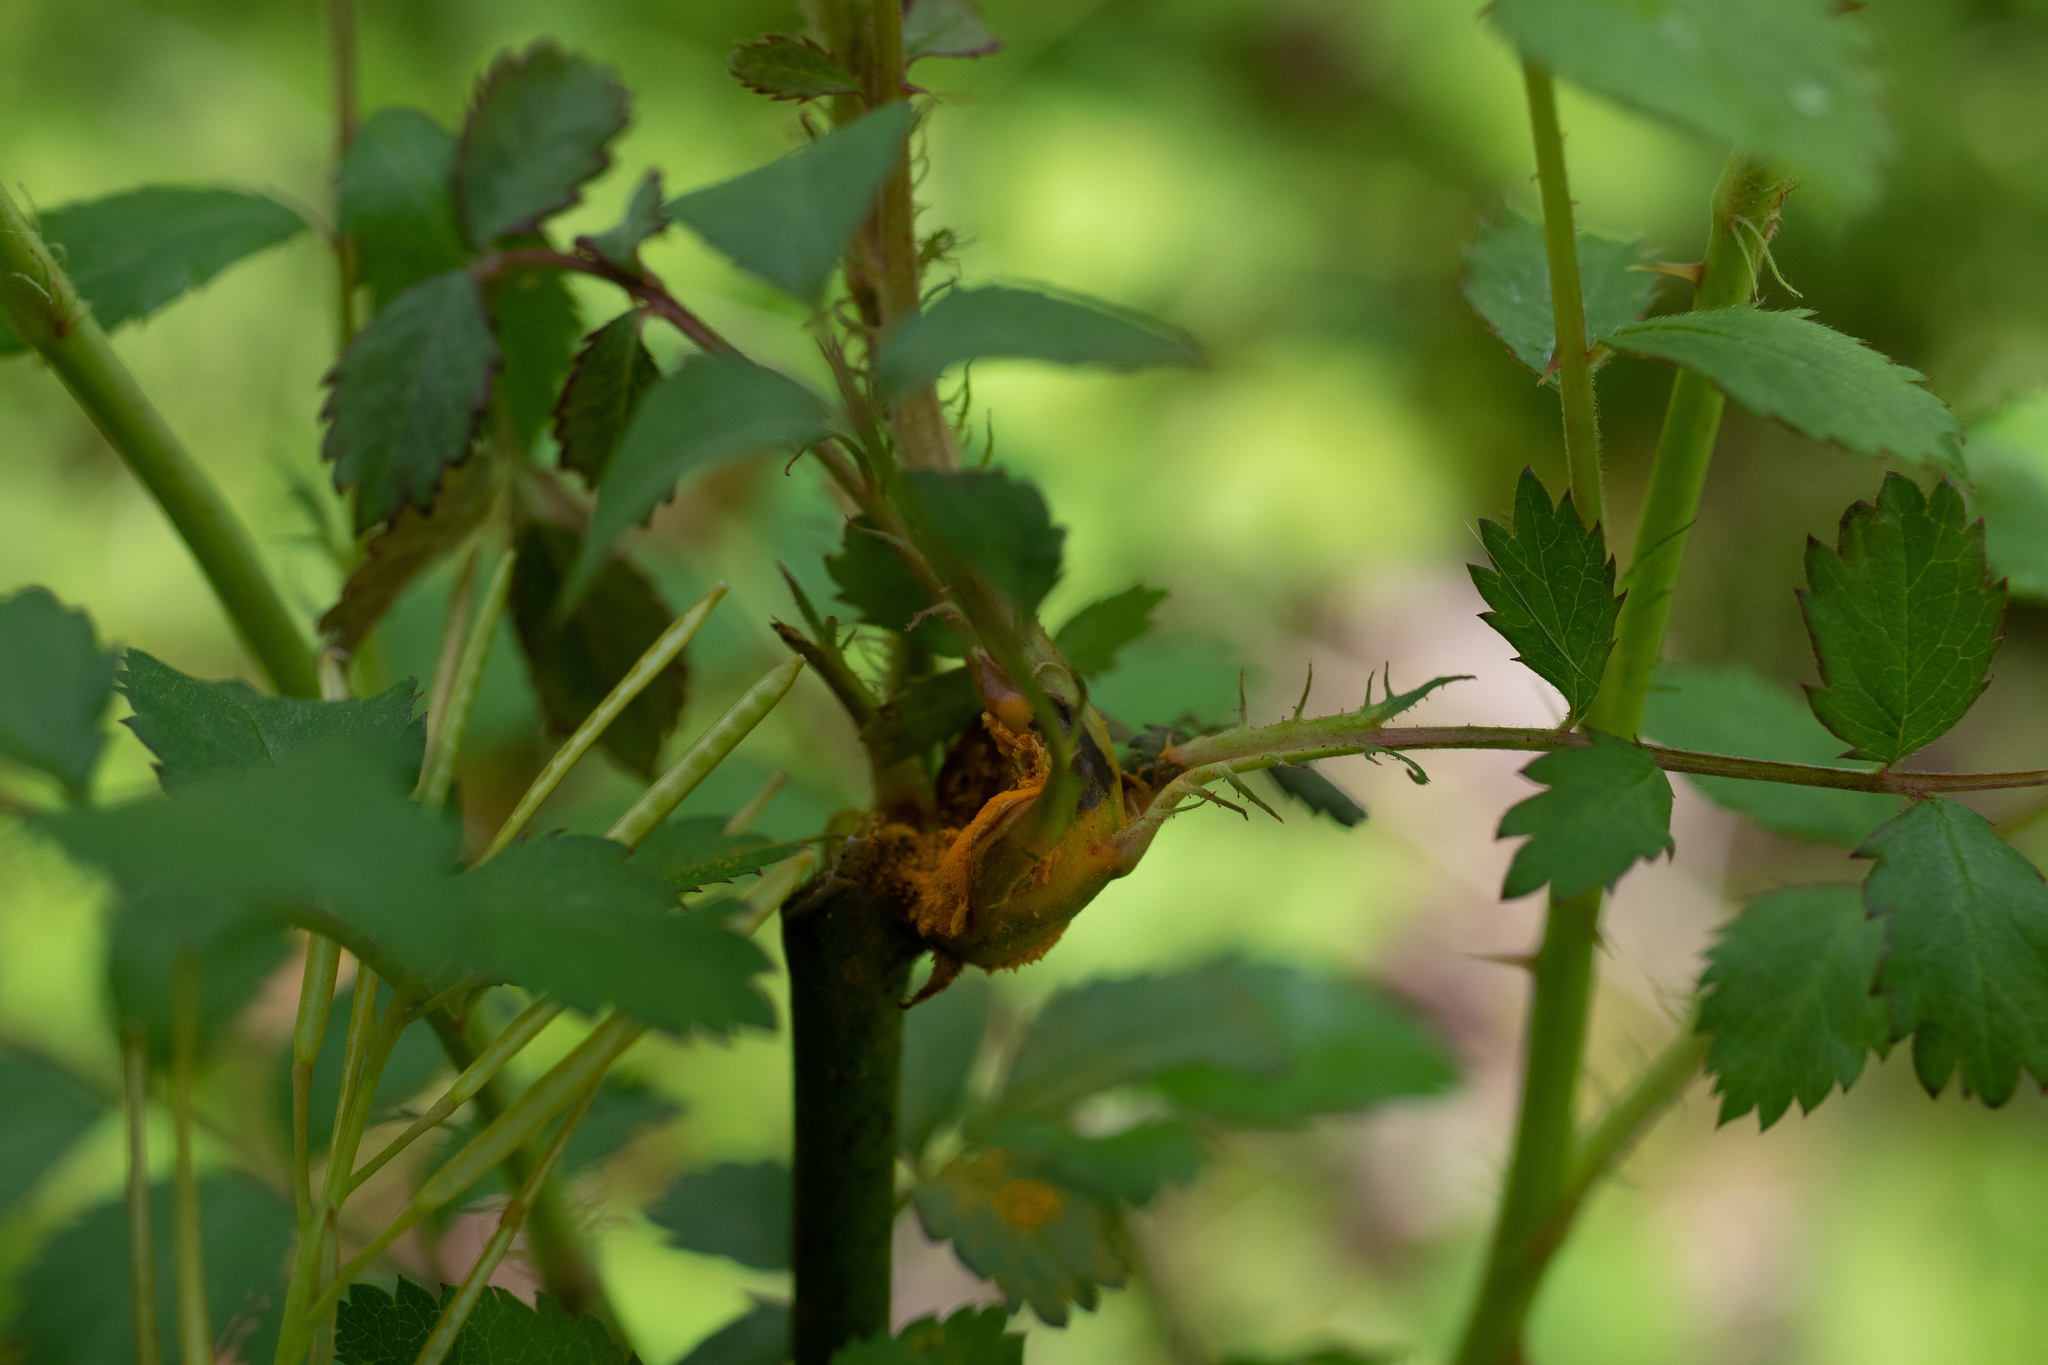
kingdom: Fungi
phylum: Basidiomycota
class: Pucciniomycetes
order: Pucciniales
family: Phragmidiaceae
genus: Phragmidium
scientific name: Phragmidium mucronatum
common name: Rose rust
